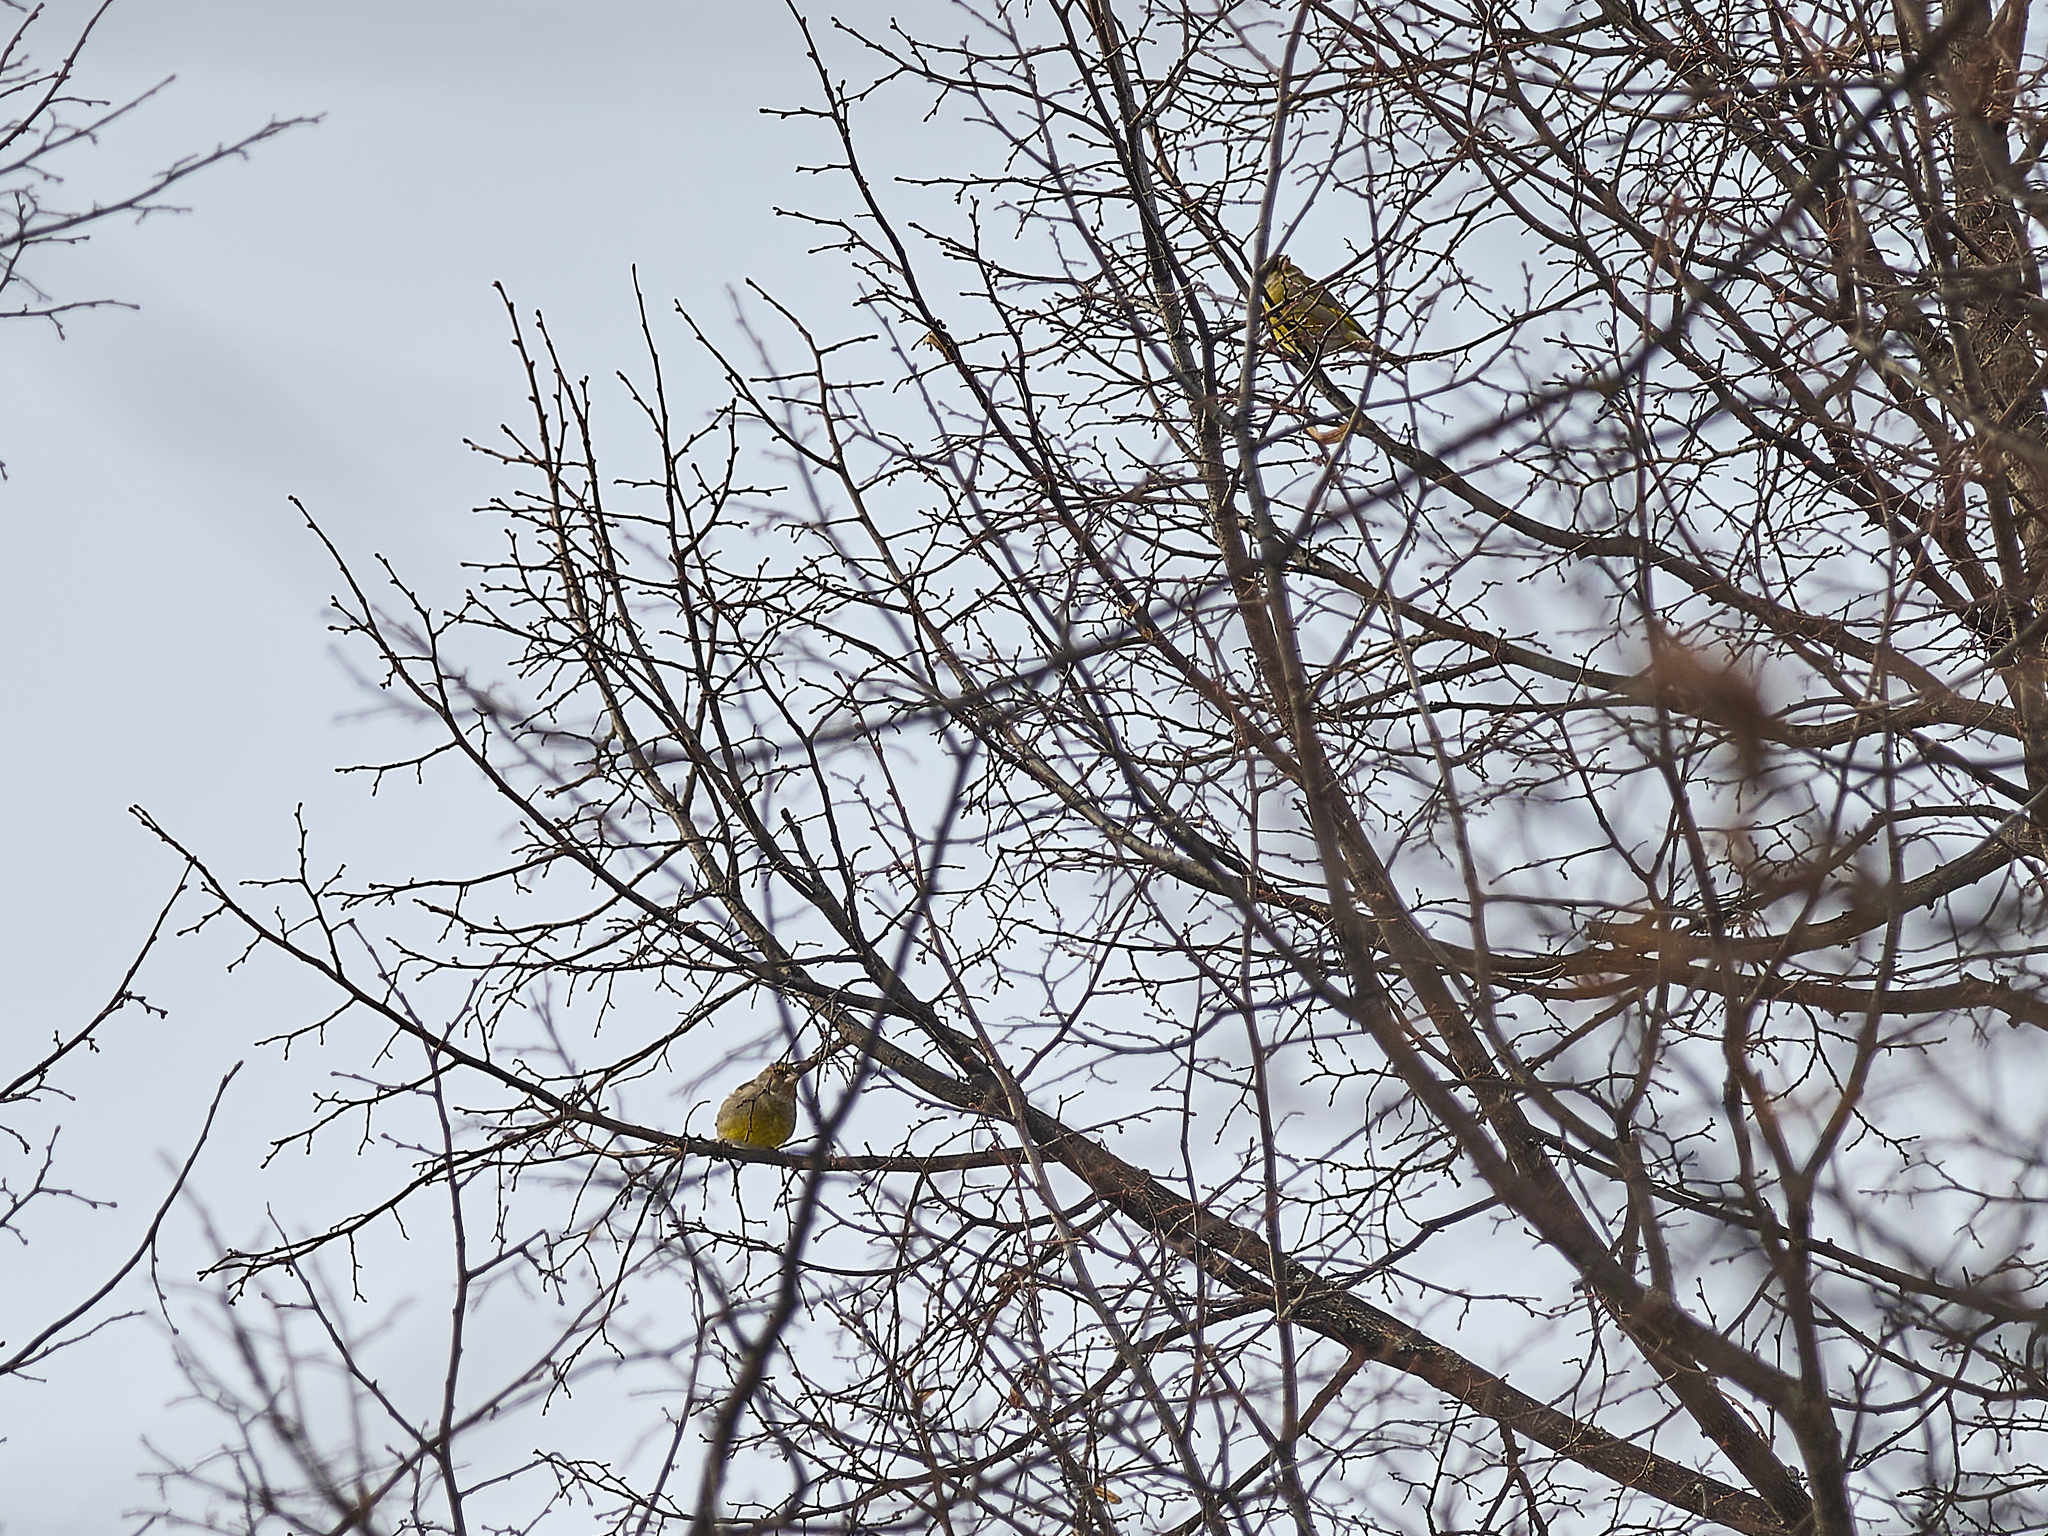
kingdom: Plantae
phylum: Tracheophyta
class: Liliopsida
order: Poales
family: Poaceae
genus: Chloris
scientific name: Chloris chloris
